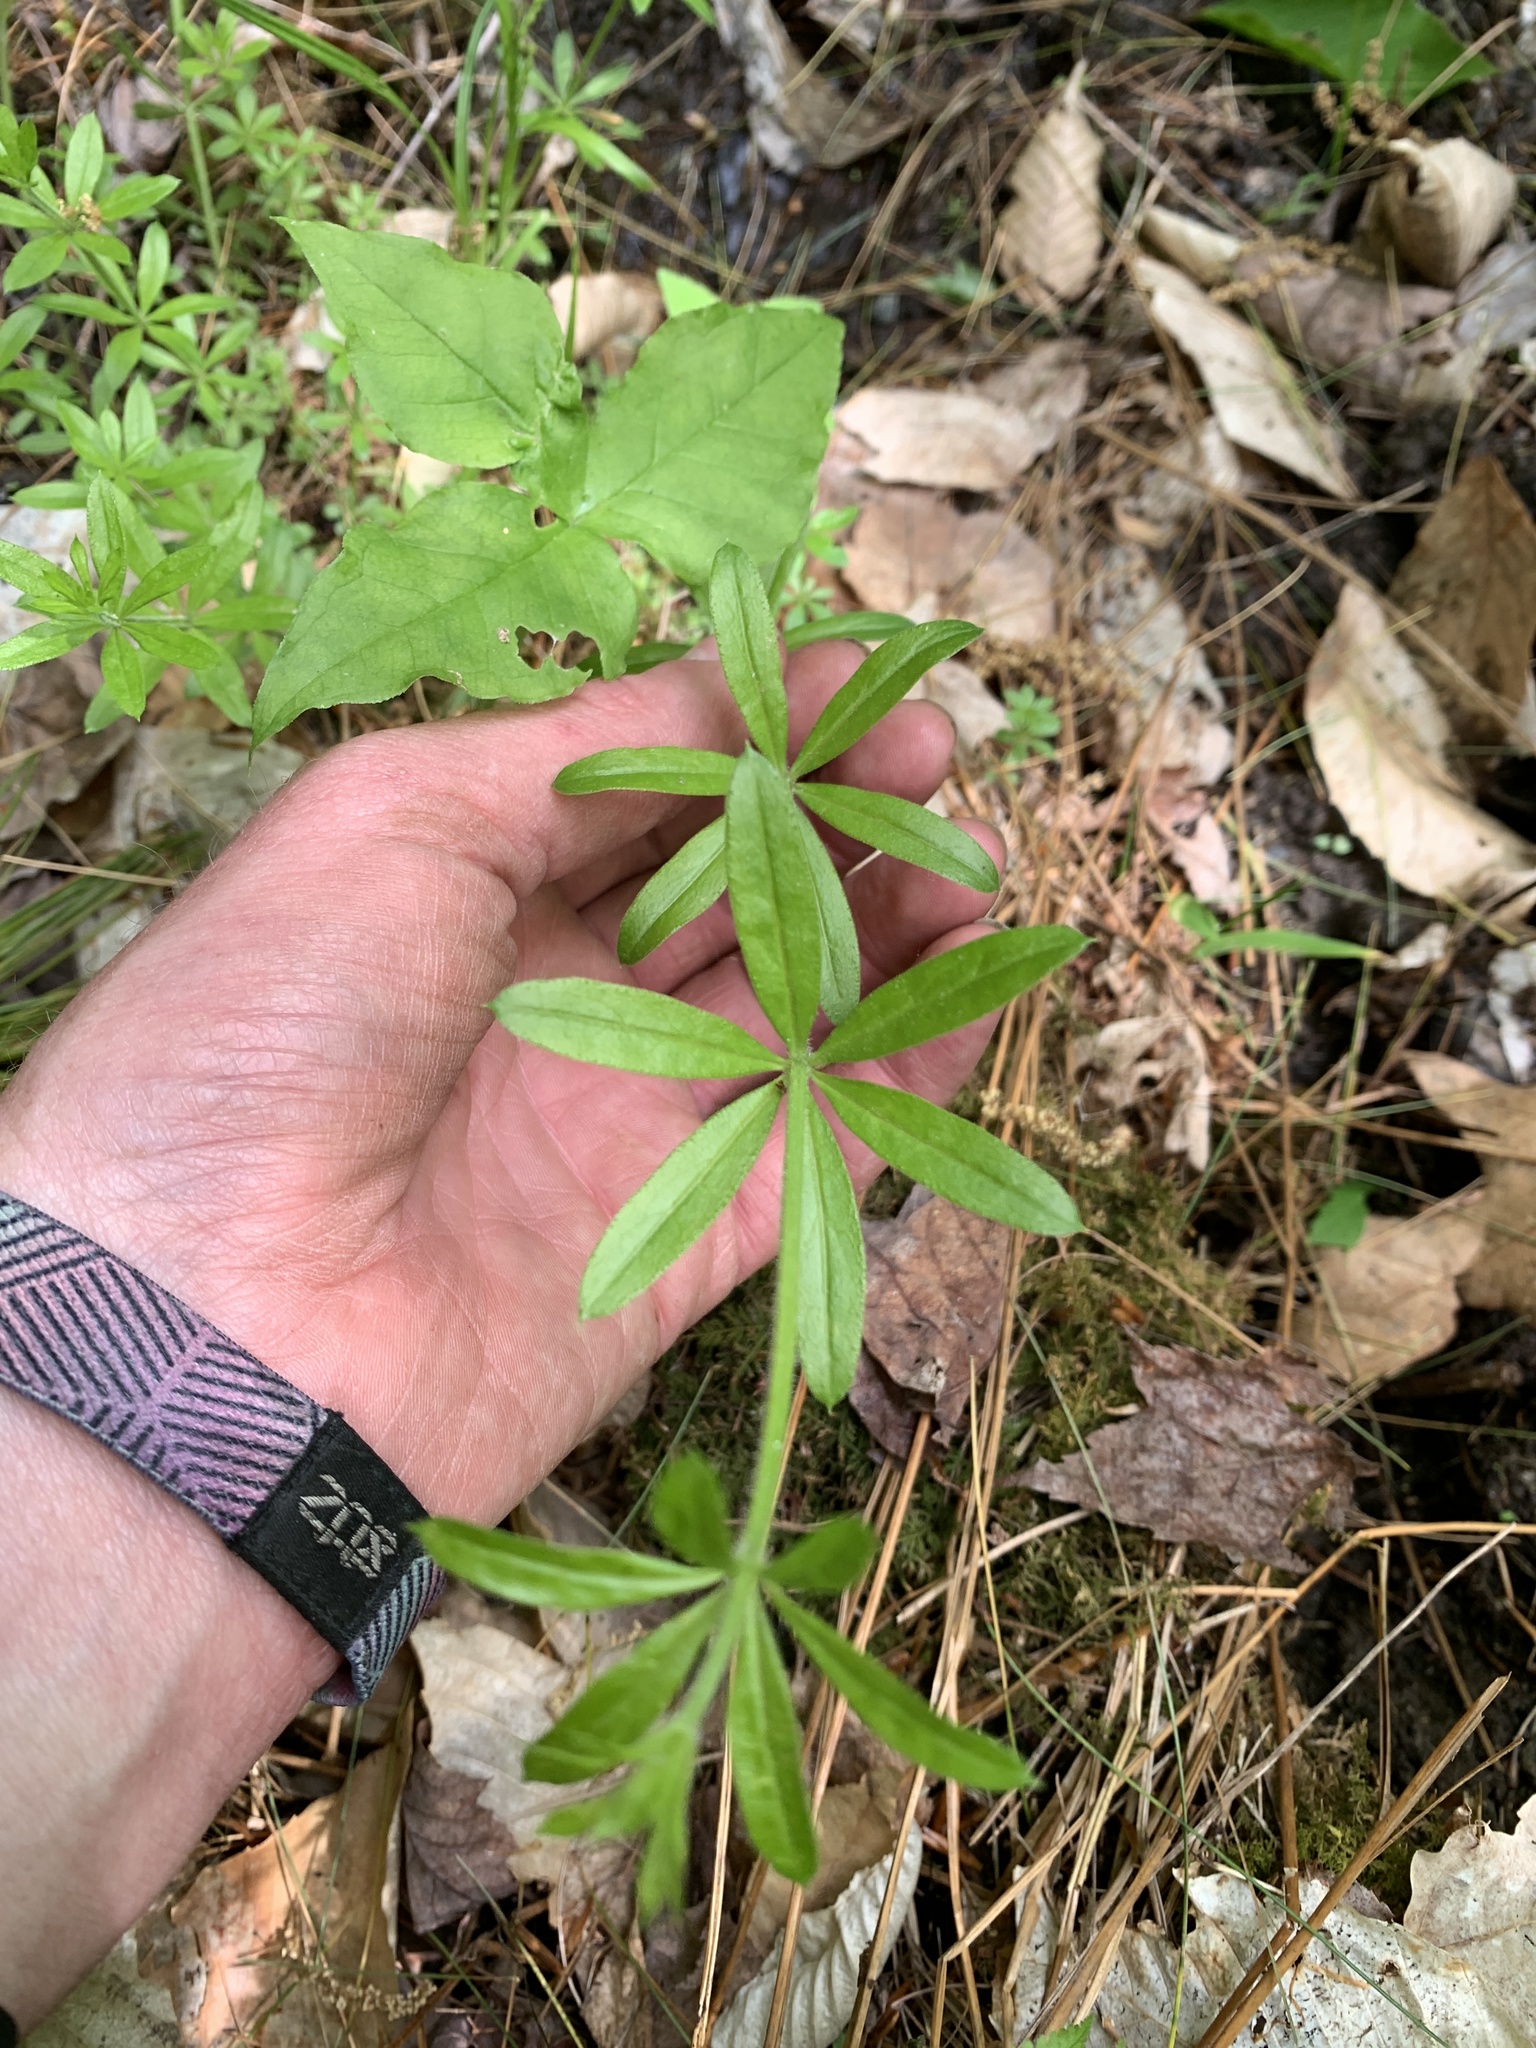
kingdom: Plantae
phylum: Tracheophyta
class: Magnoliopsida
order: Gentianales
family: Rubiaceae
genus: Galium
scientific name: Galium triflorum
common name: Fragrant bedstraw
